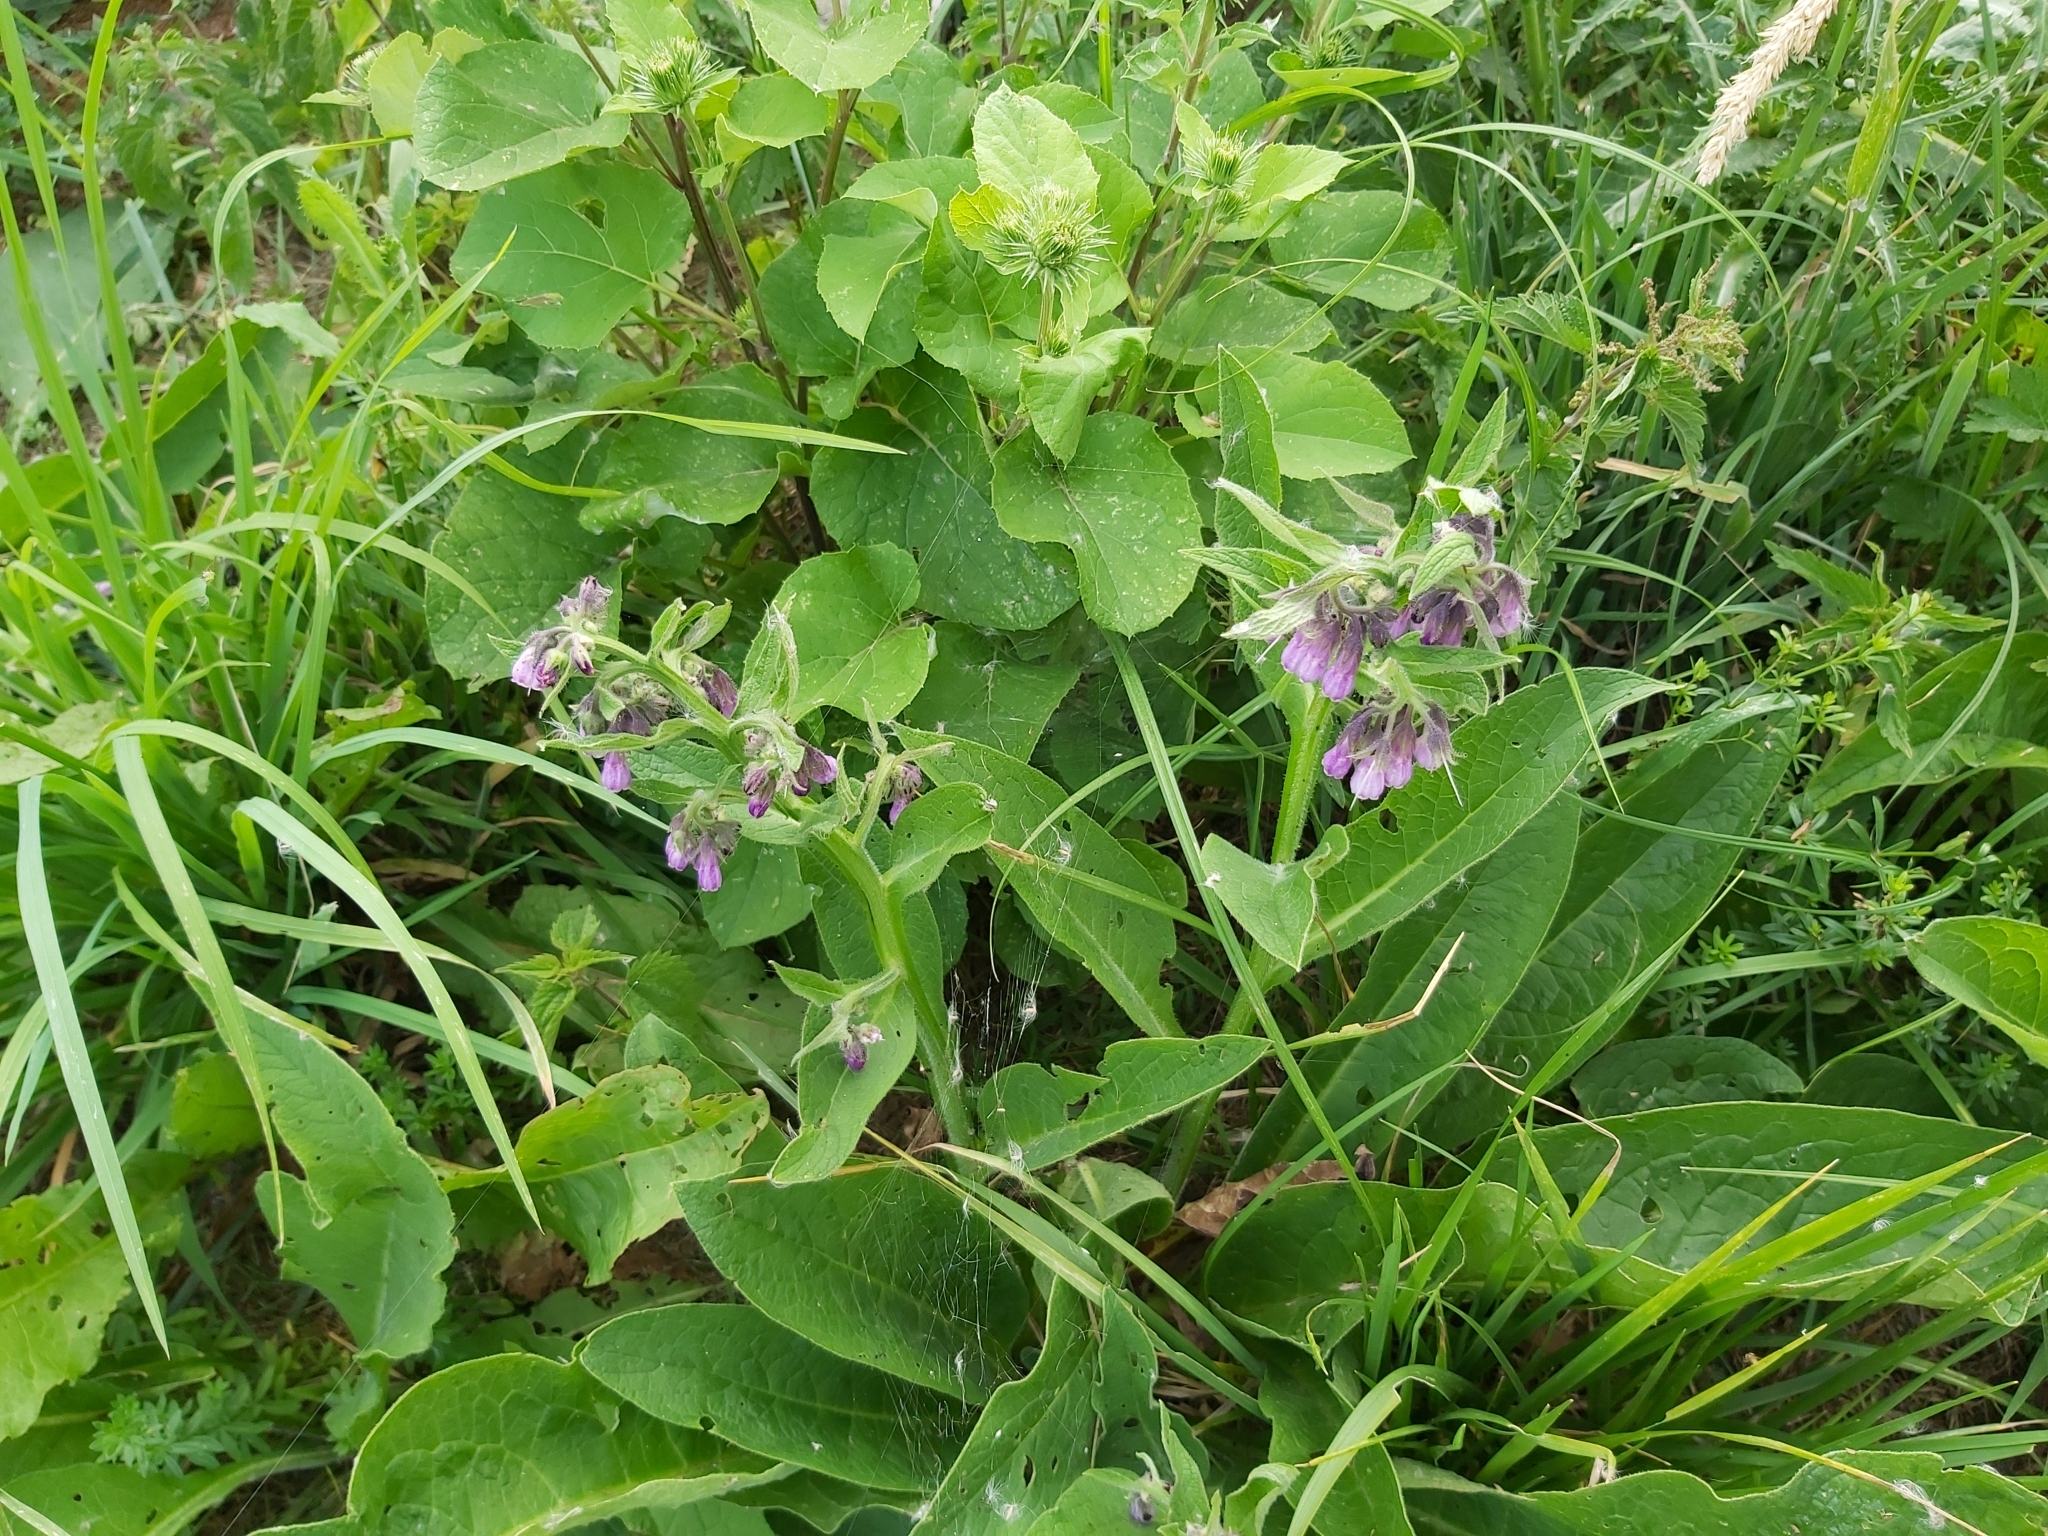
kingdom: Plantae
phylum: Tracheophyta
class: Magnoliopsida
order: Boraginales
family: Boraginaceae
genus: Symphytum
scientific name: Symphytum officinale
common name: Common comfrey
